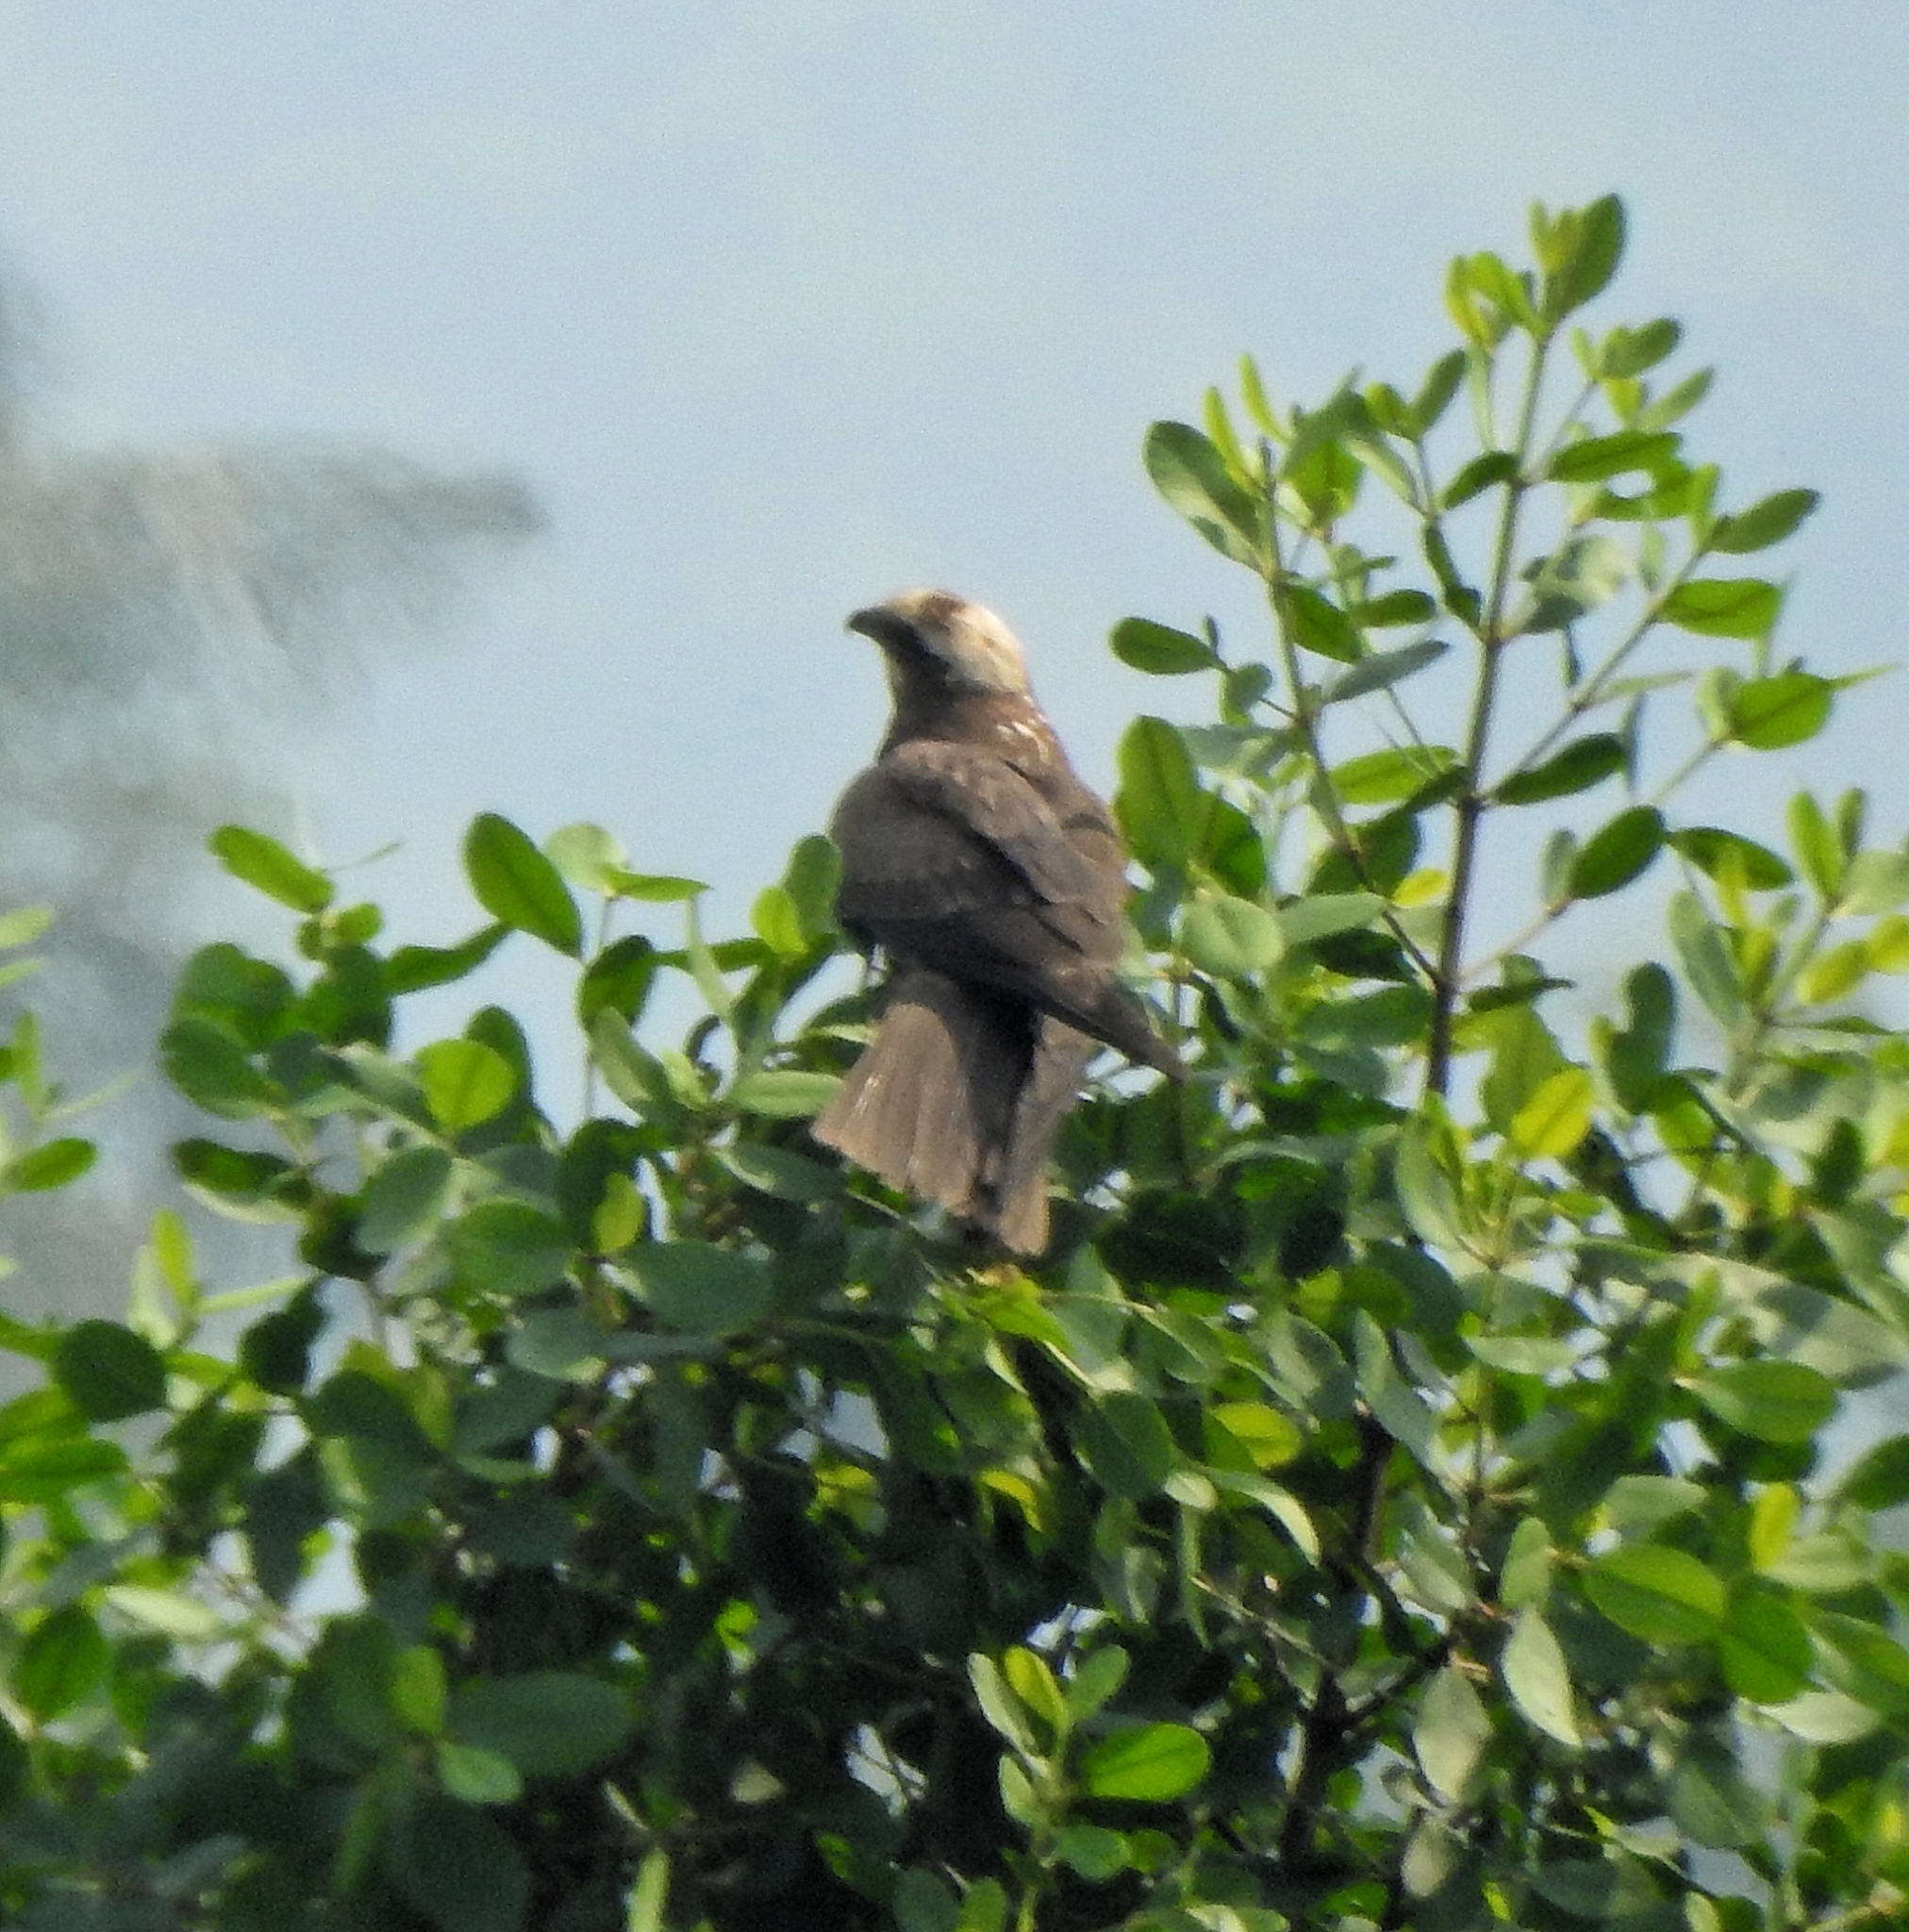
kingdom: Animalia
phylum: Chordata
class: Aves
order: Accipitriformes
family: Accipitridae
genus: Circus
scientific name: Circus aeruginosus
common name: Western marsh harrier
